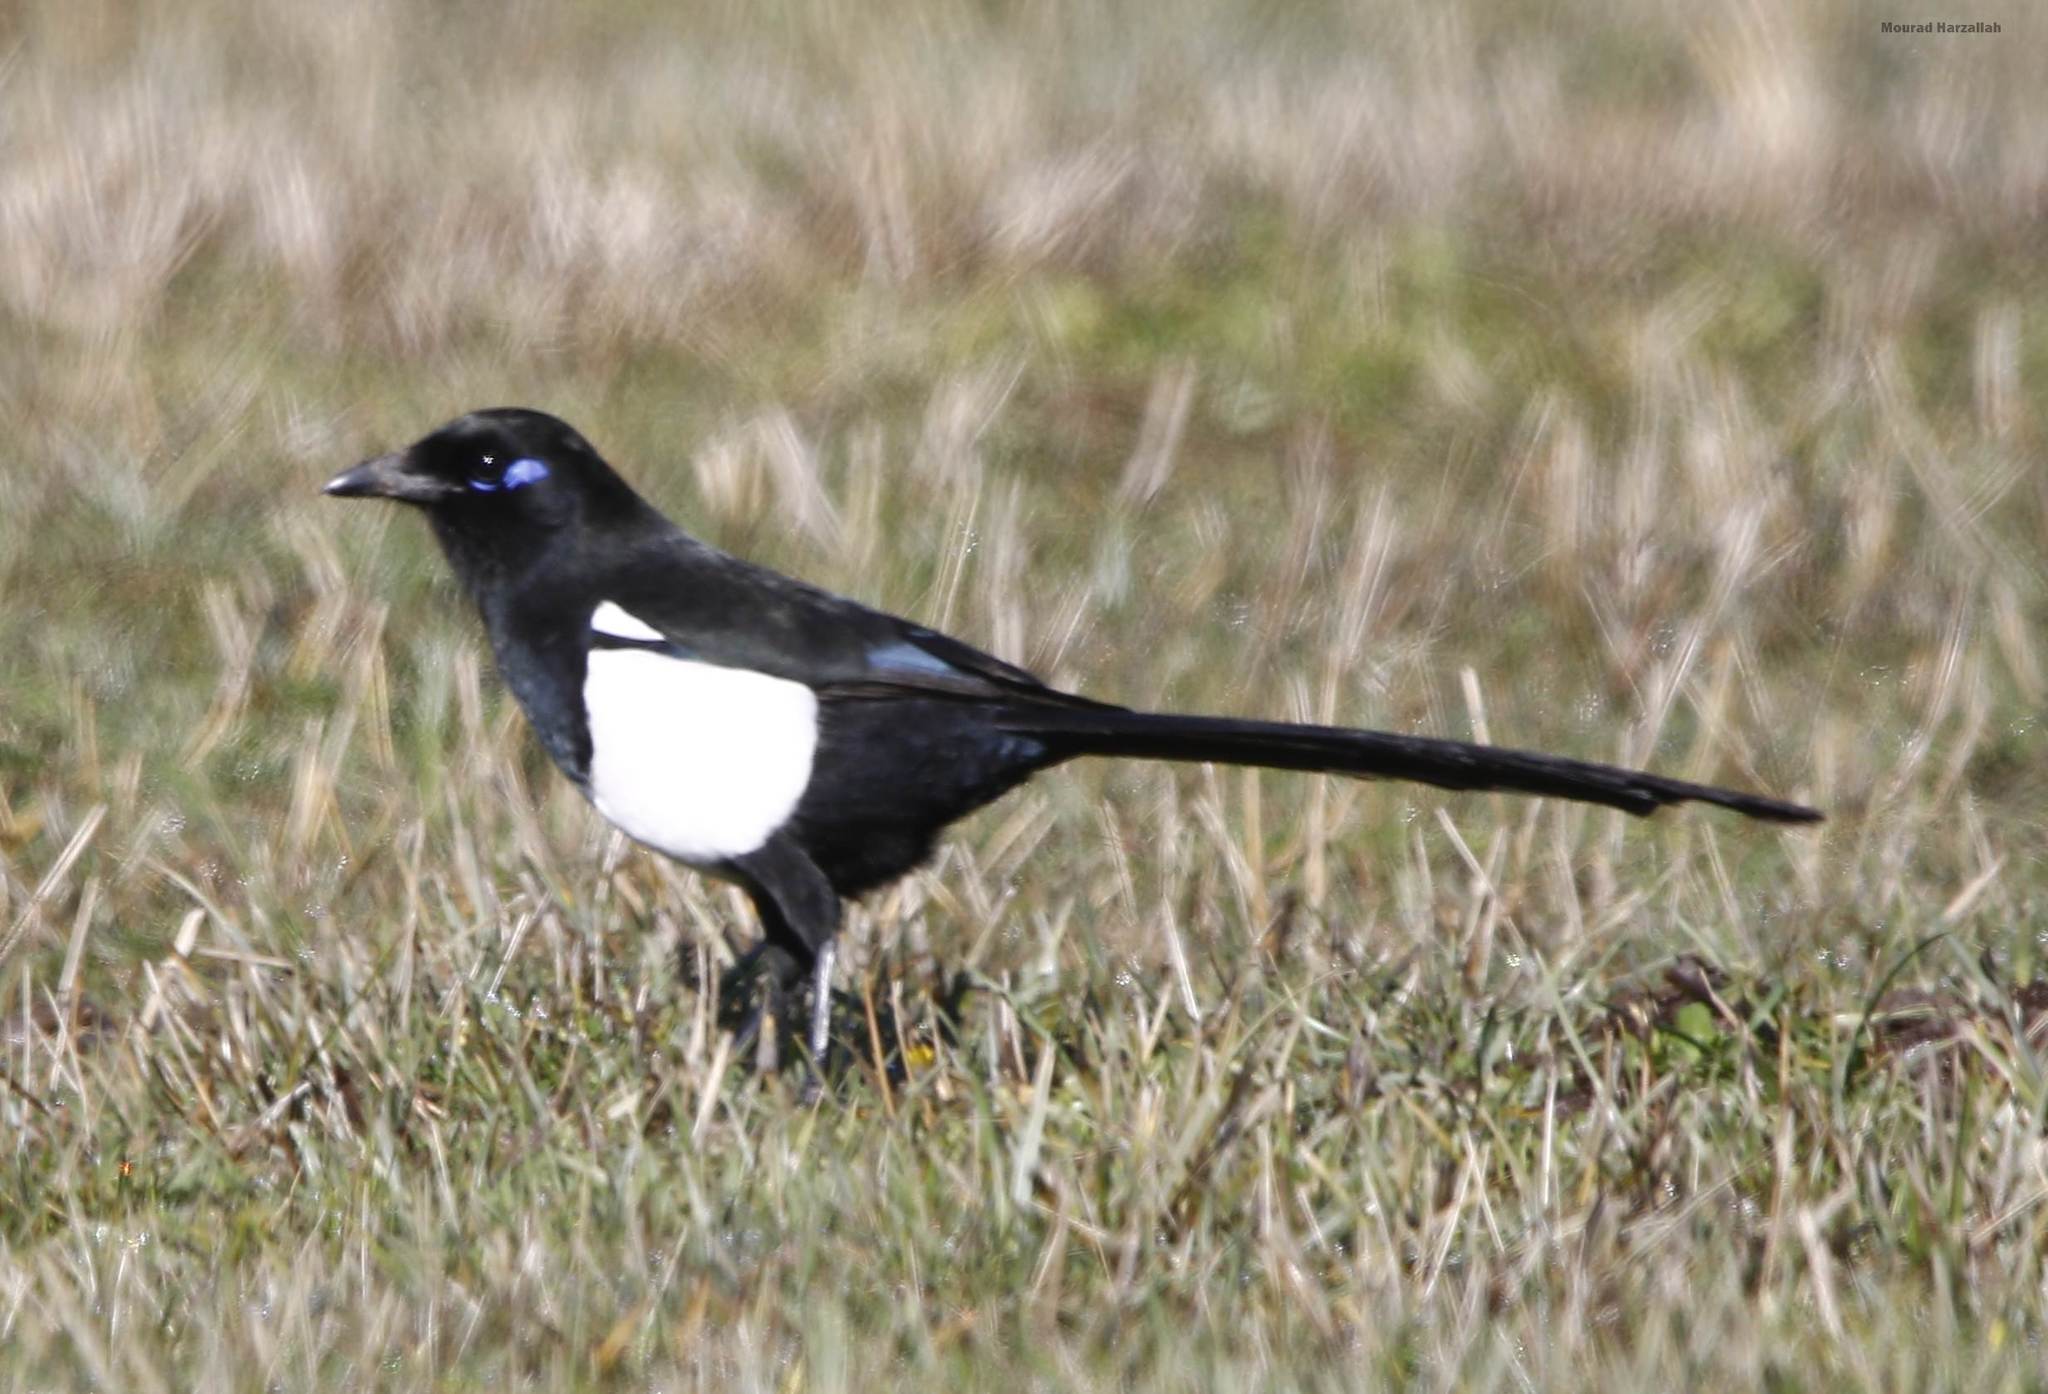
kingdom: Animalia
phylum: Chordata
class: Aves
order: Passeriformes
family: Corvidae
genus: Pica
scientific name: Pica mauritanica
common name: Maghreb magpie
